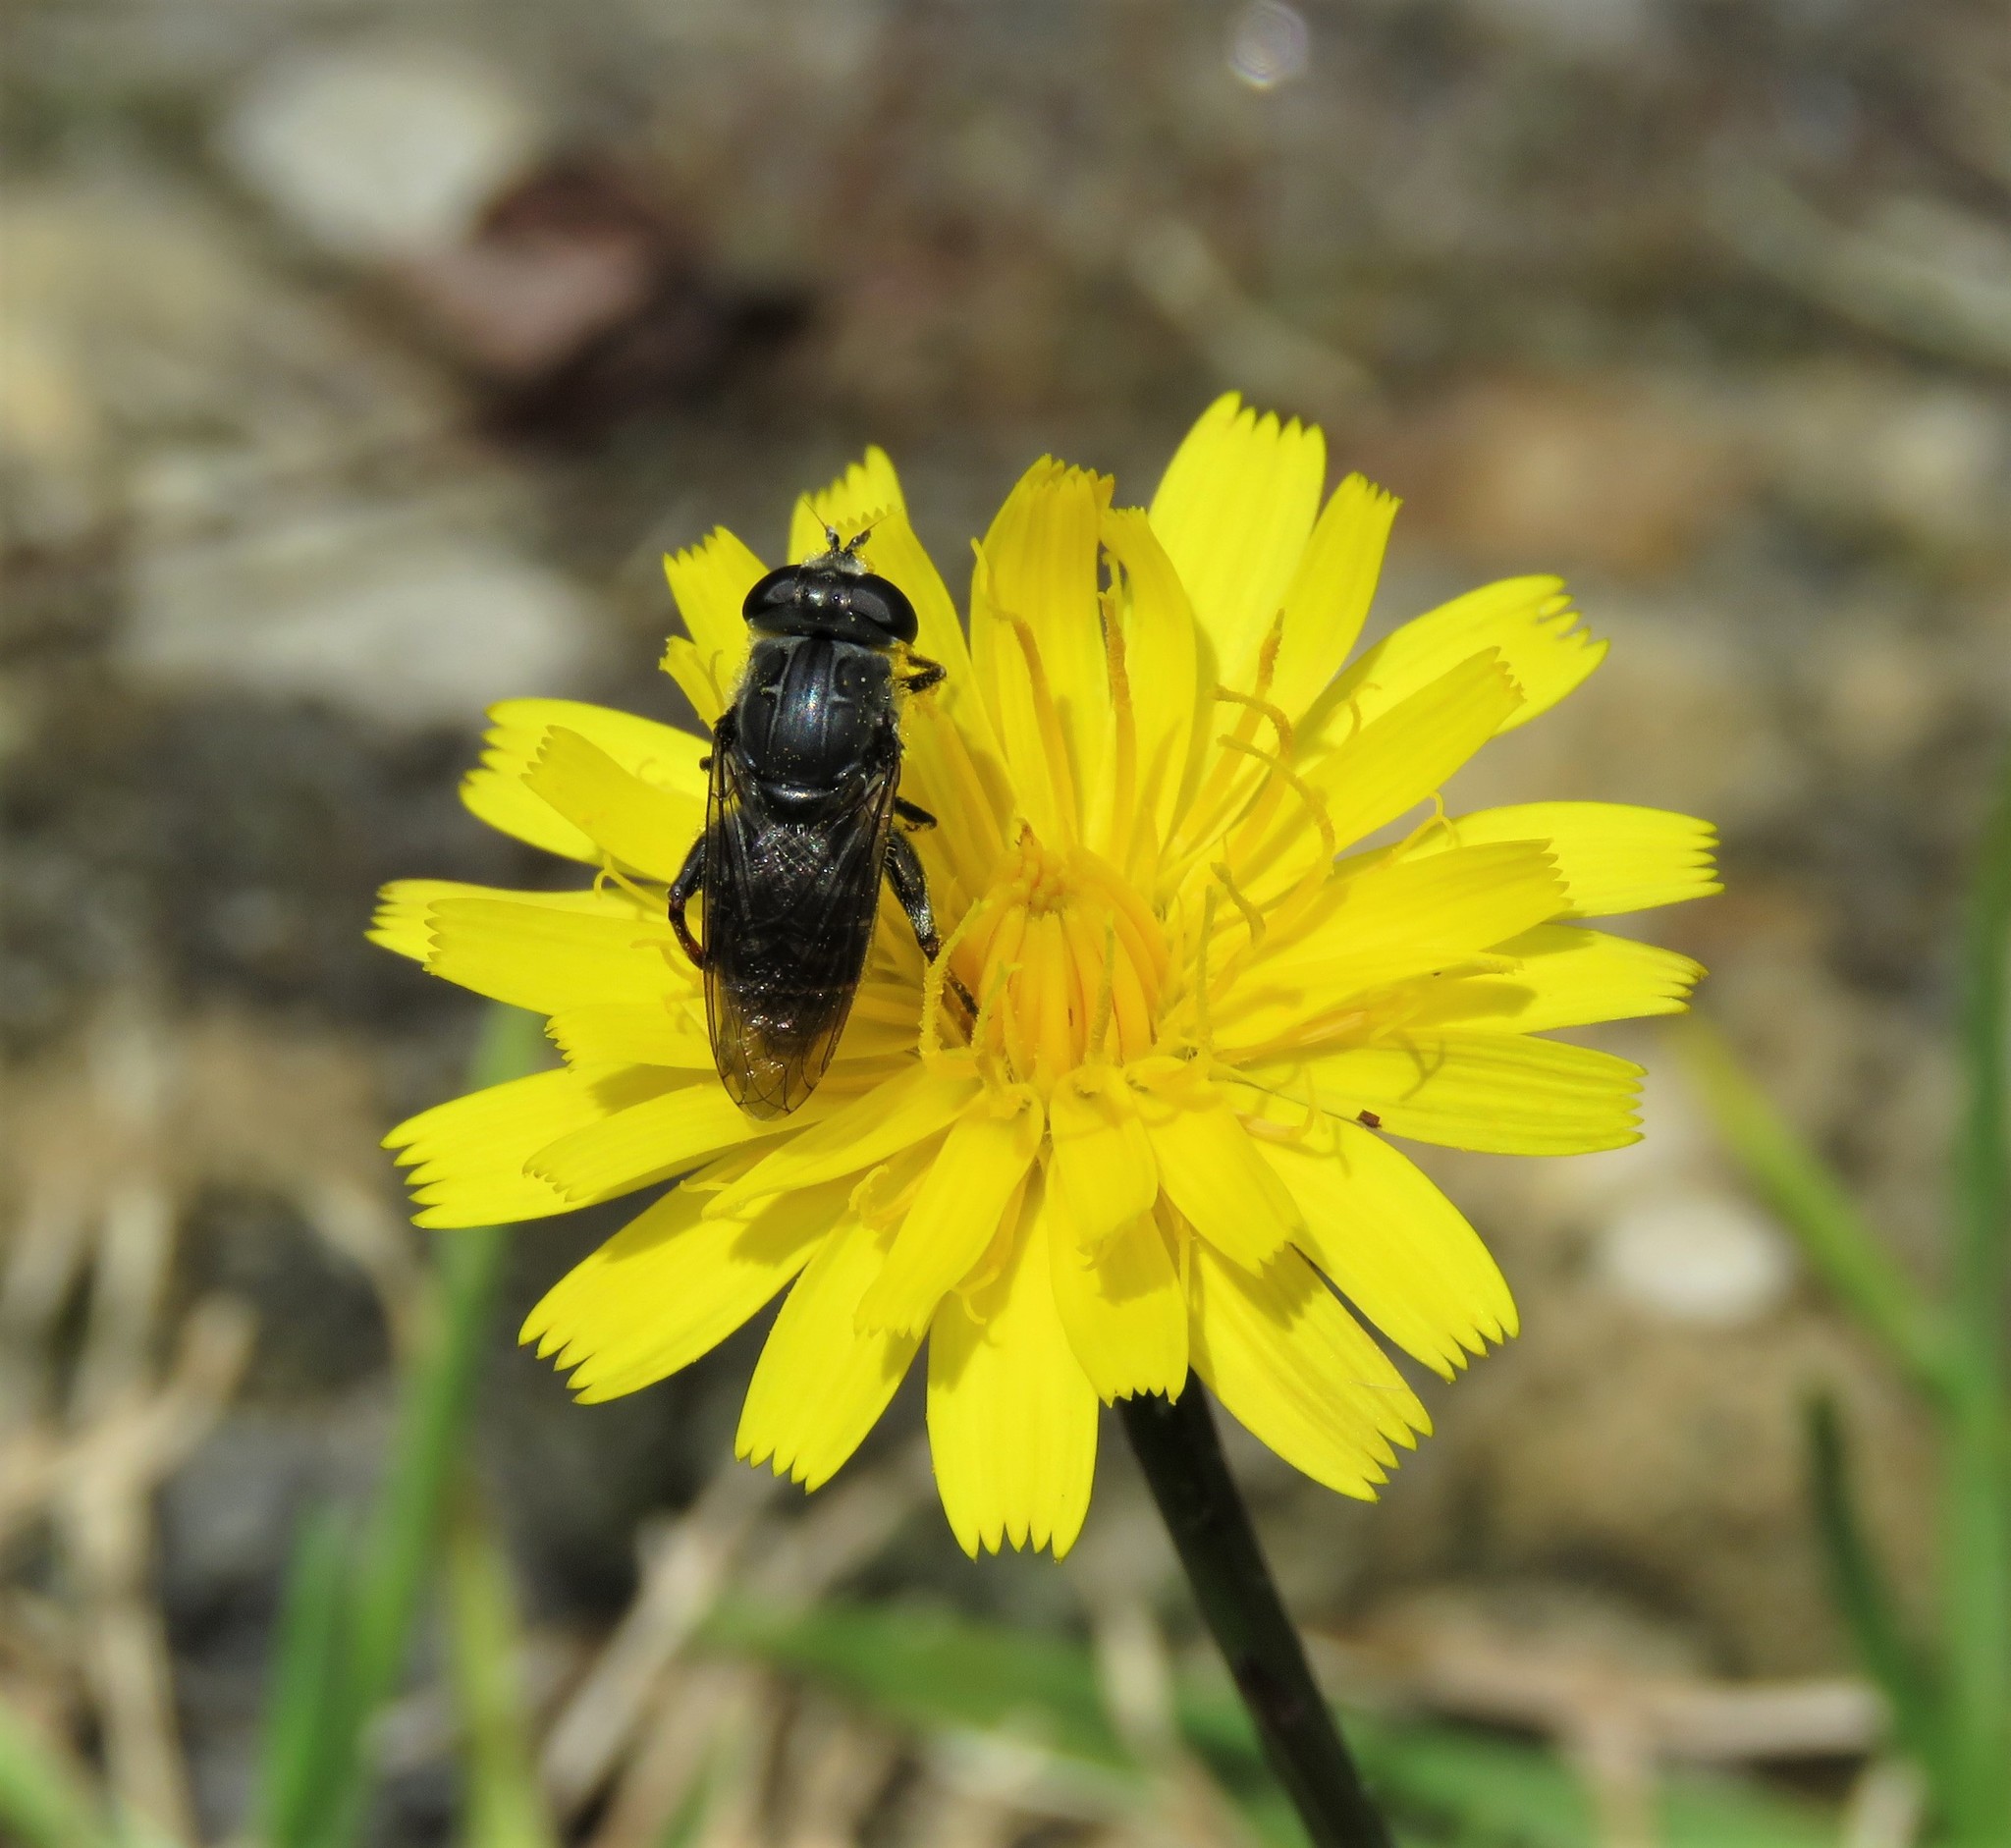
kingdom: Animalia
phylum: Arthropoda
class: Insecta
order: Diptera
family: Syrphidae
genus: Asemosyrphus
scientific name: Asemosyrphus
